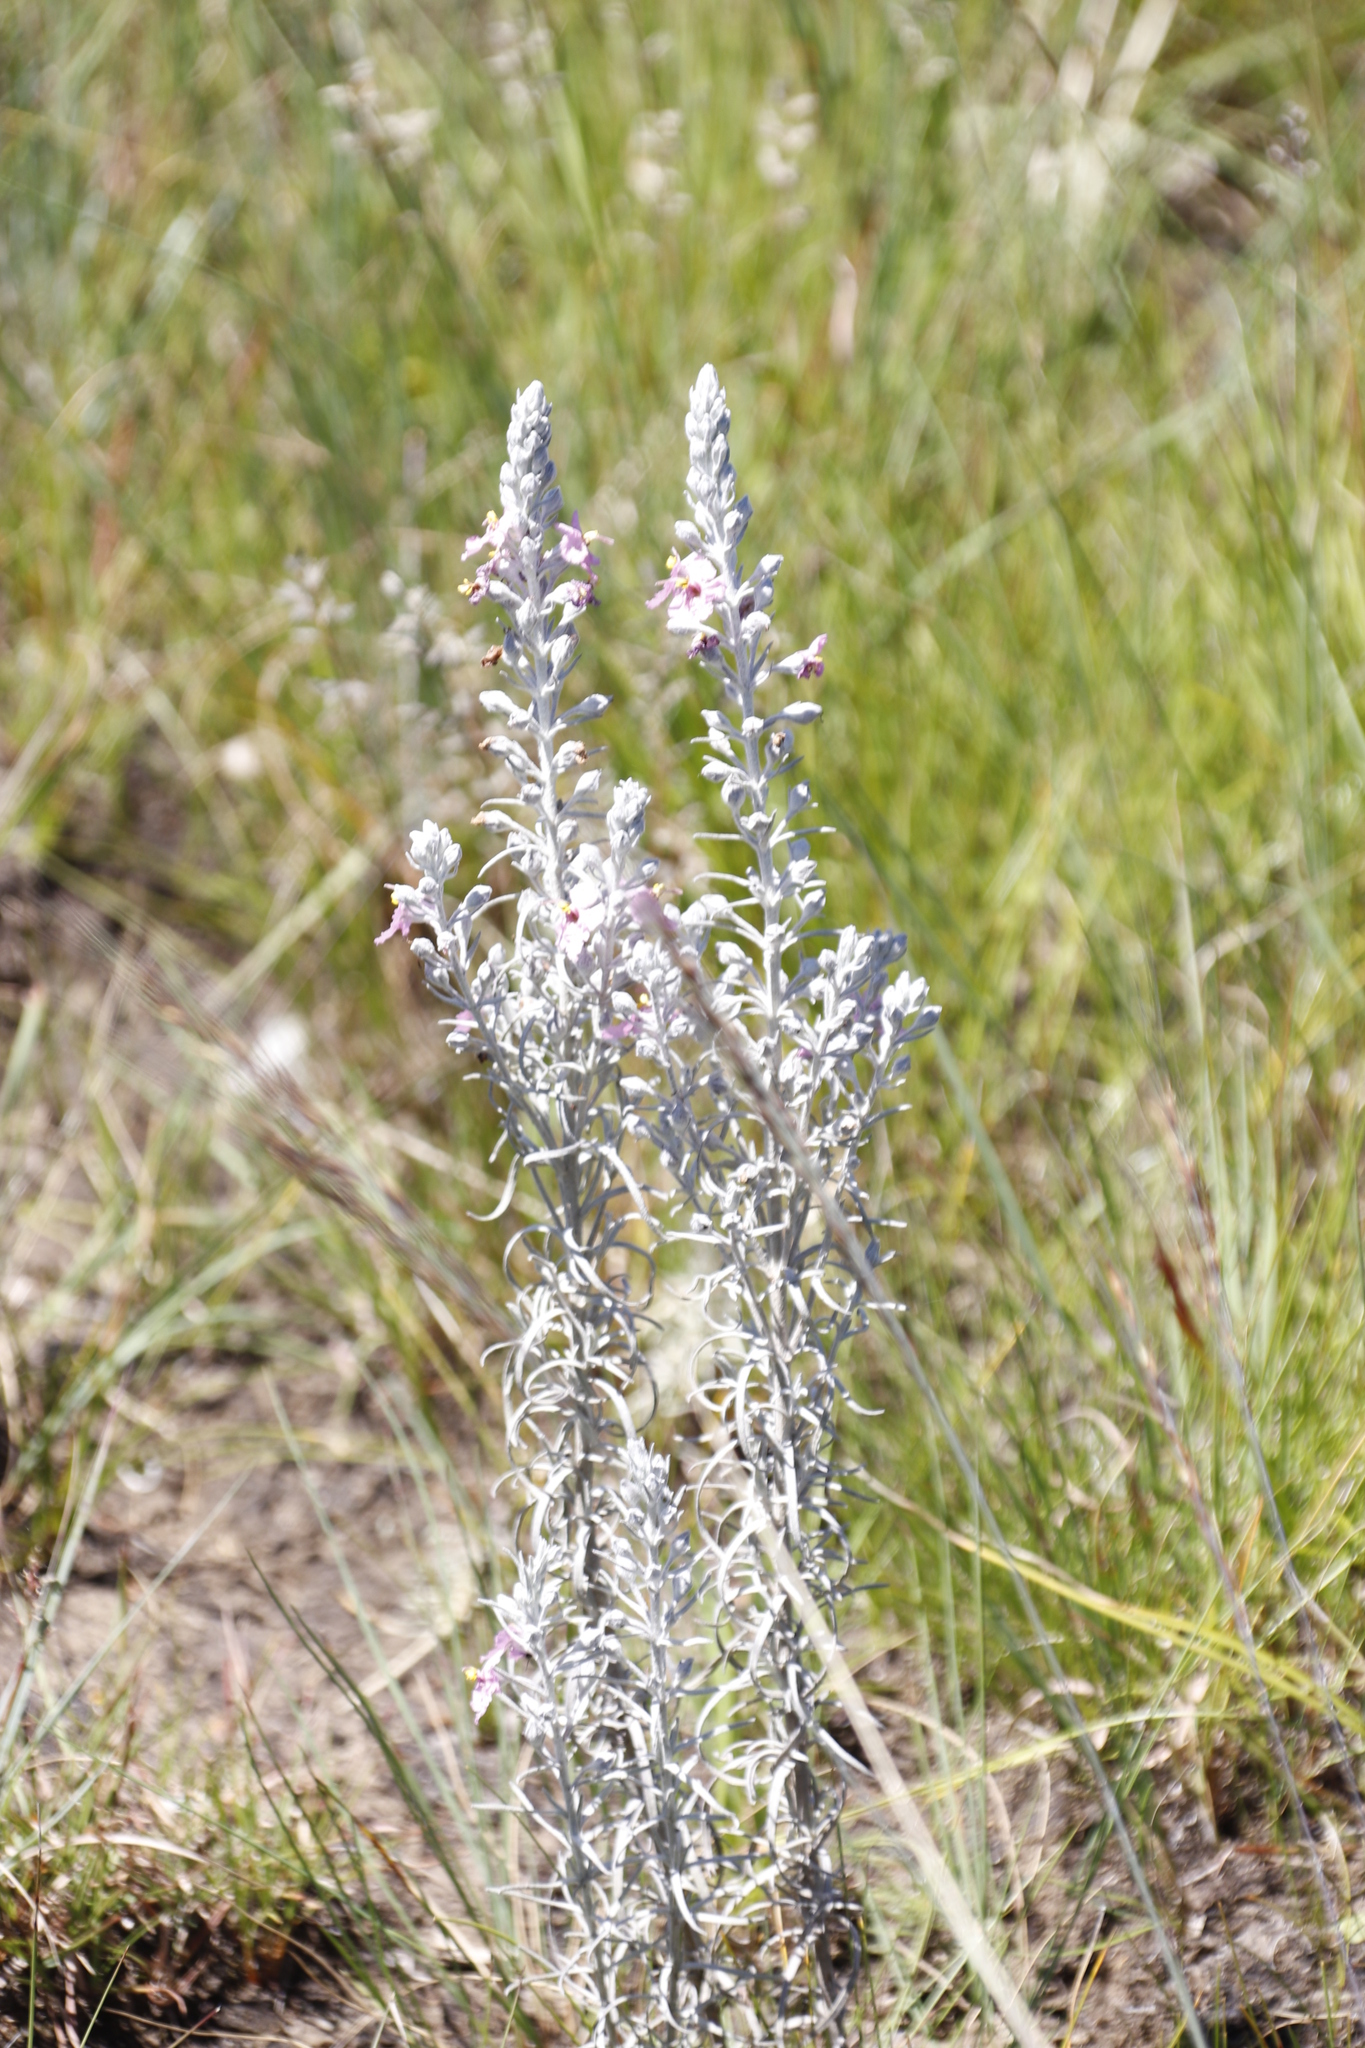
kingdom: Plantae
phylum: Tracheophyta
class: Magnoliopsida
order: Lamiales
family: Orobanchaceae
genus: Sopubia
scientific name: Sopubia cana
